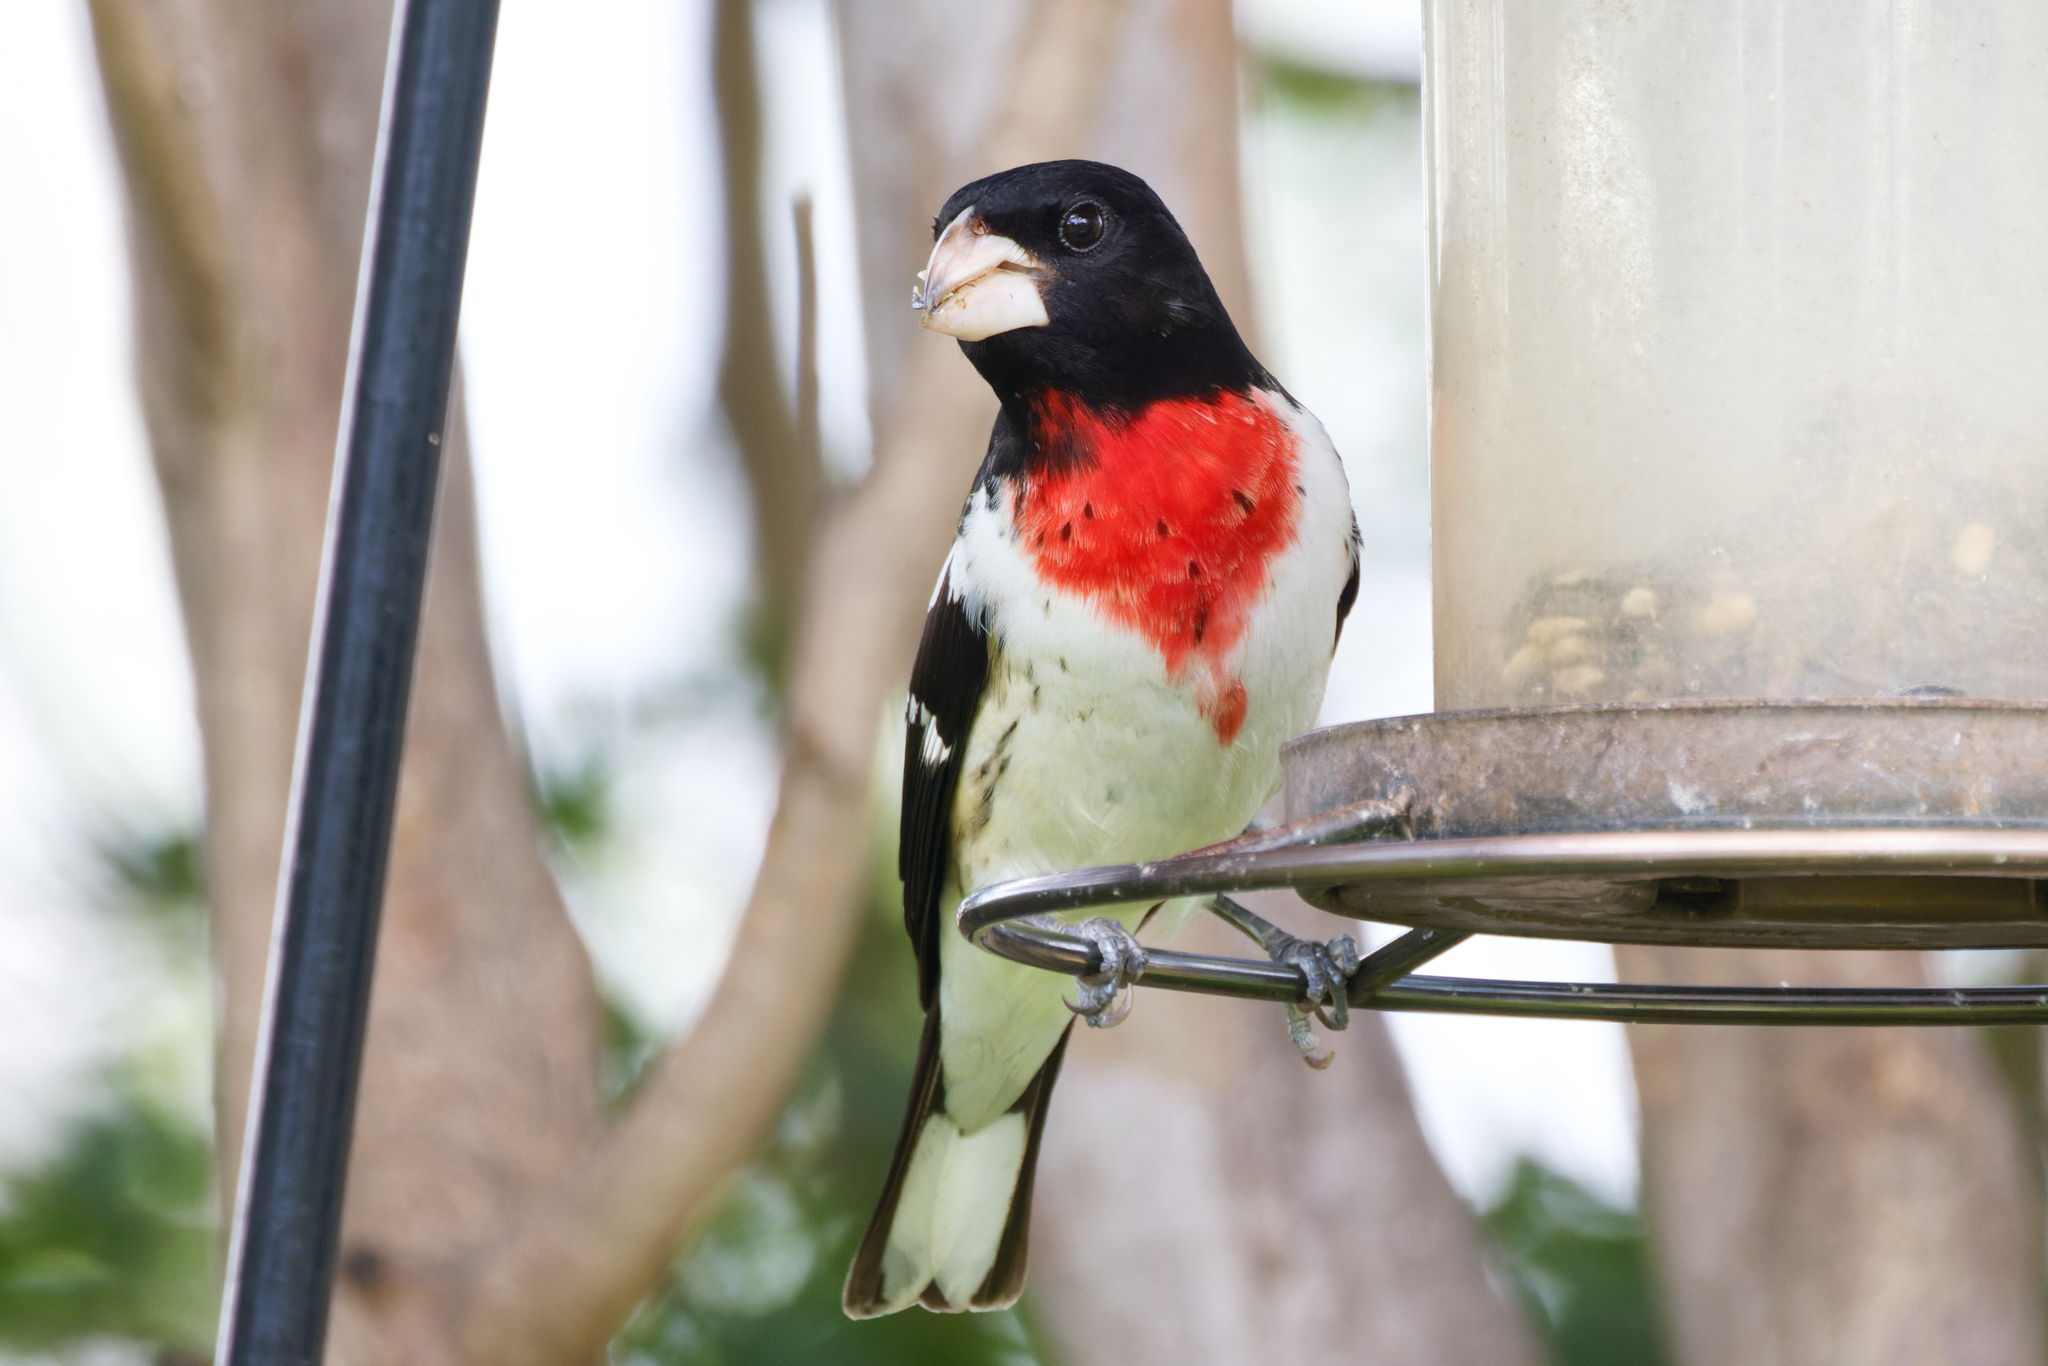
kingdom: Animalia
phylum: Chordata
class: Aves
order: Passeriformes
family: Cardinalidae
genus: Pheucticus
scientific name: Pheucticus ludovicianus
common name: Rose-breasted grosbeak
